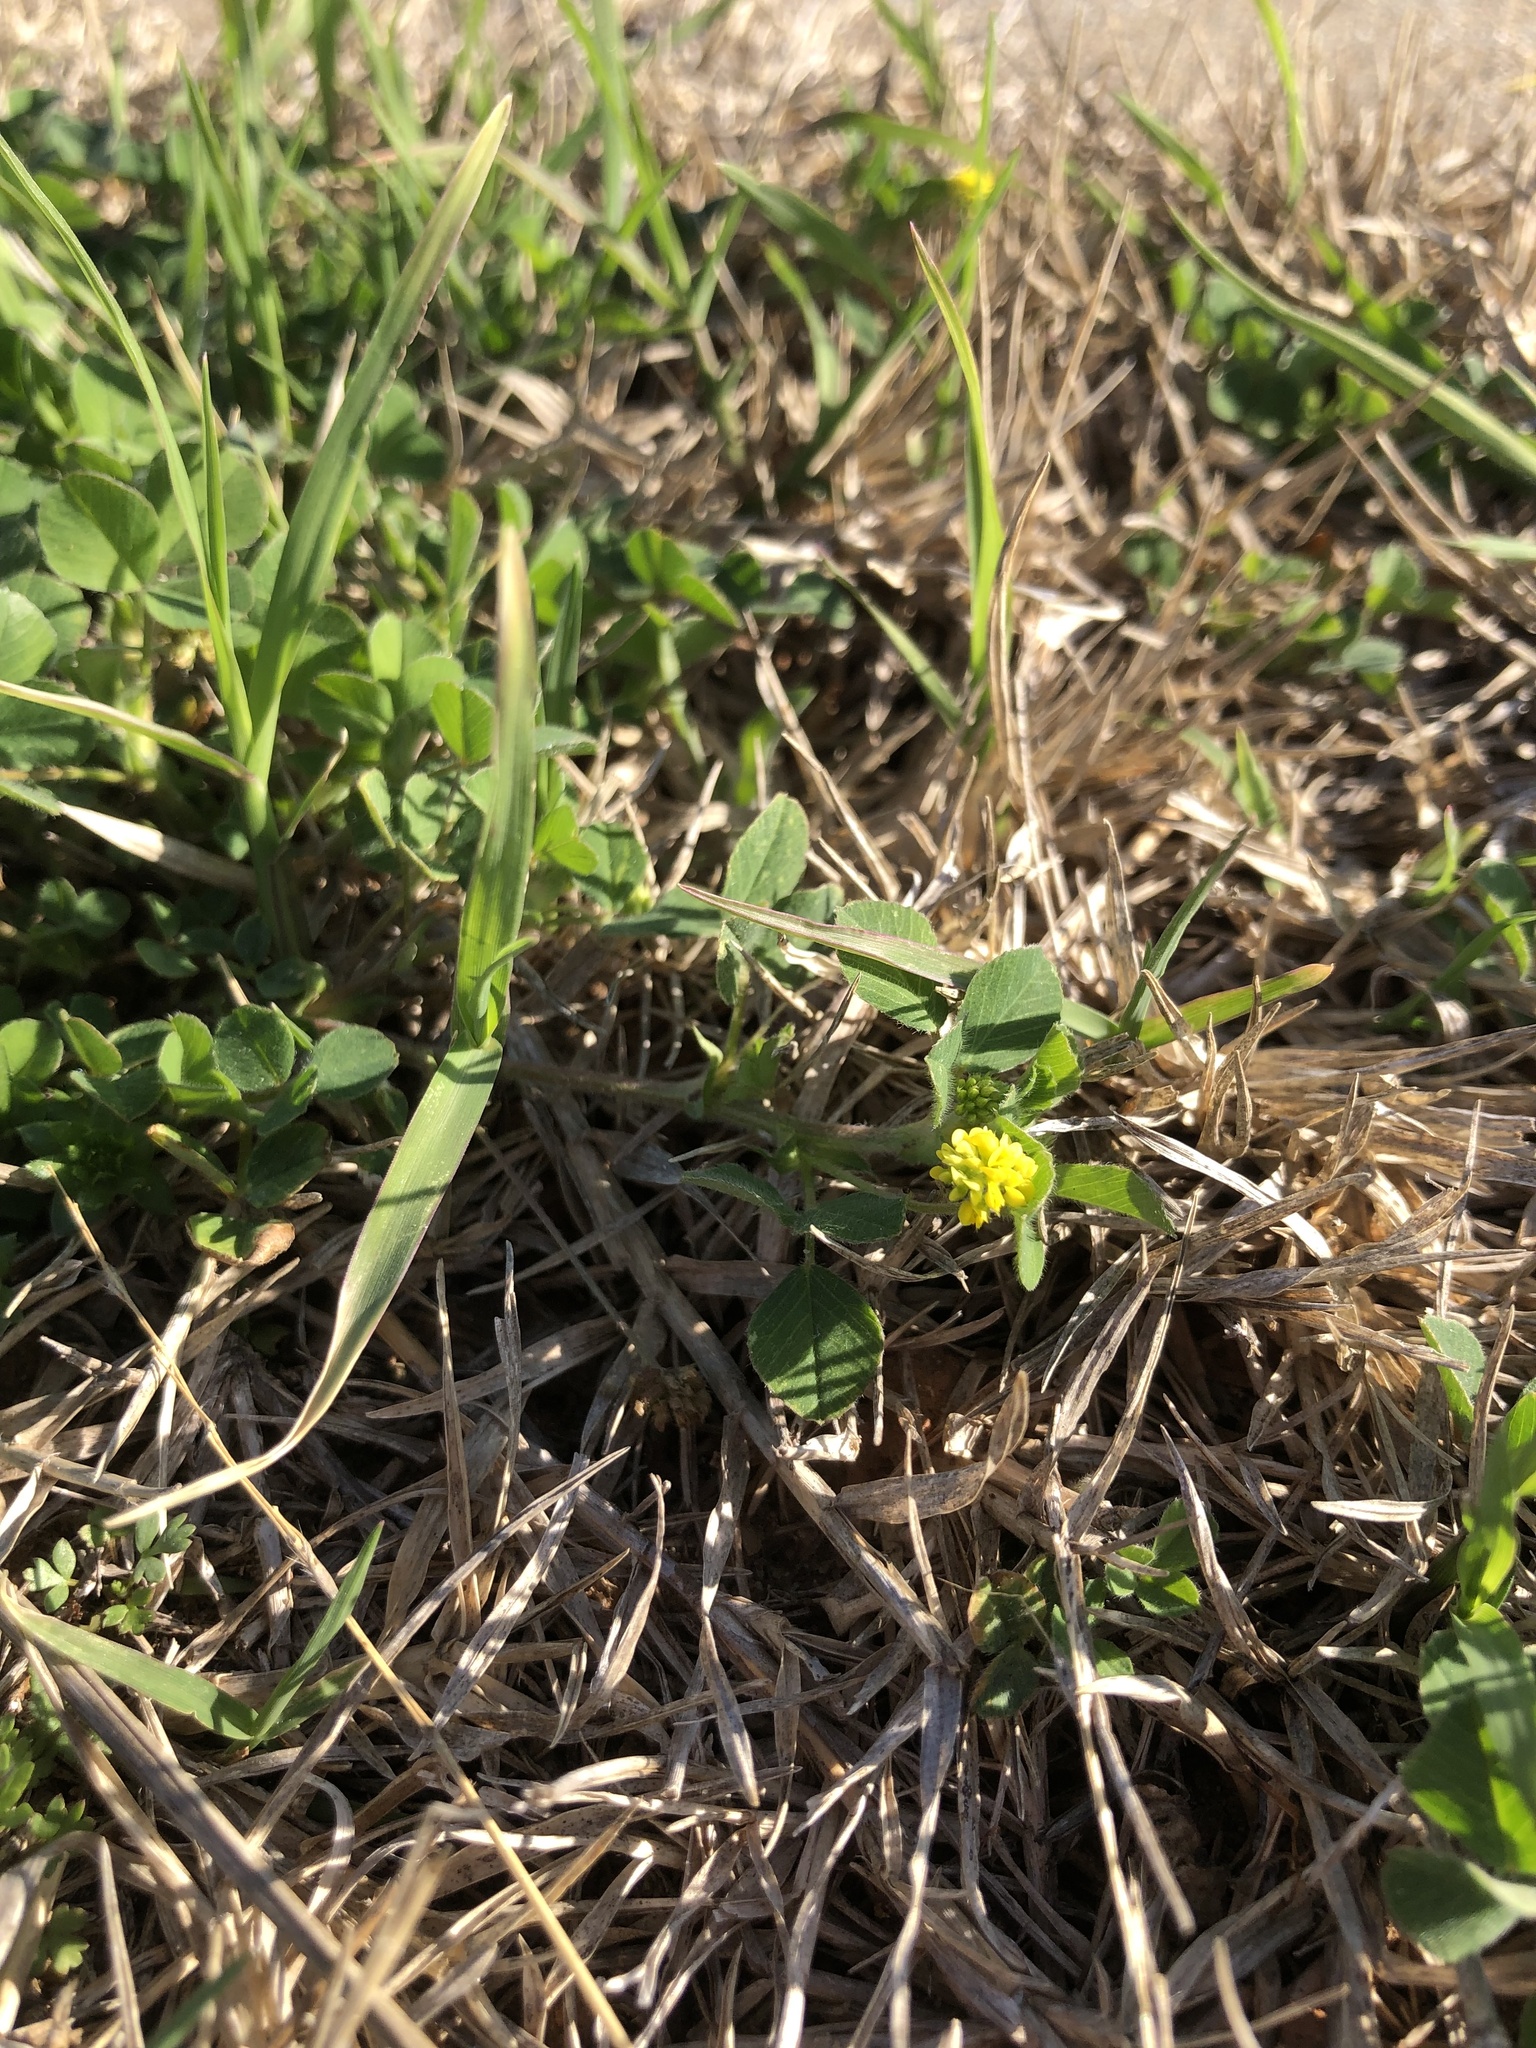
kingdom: Plantae
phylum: Tracheophyta
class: Magnoliopsida
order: Fabales
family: Fabaceae
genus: Medicago
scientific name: Medicago lupulina
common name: Black medick
